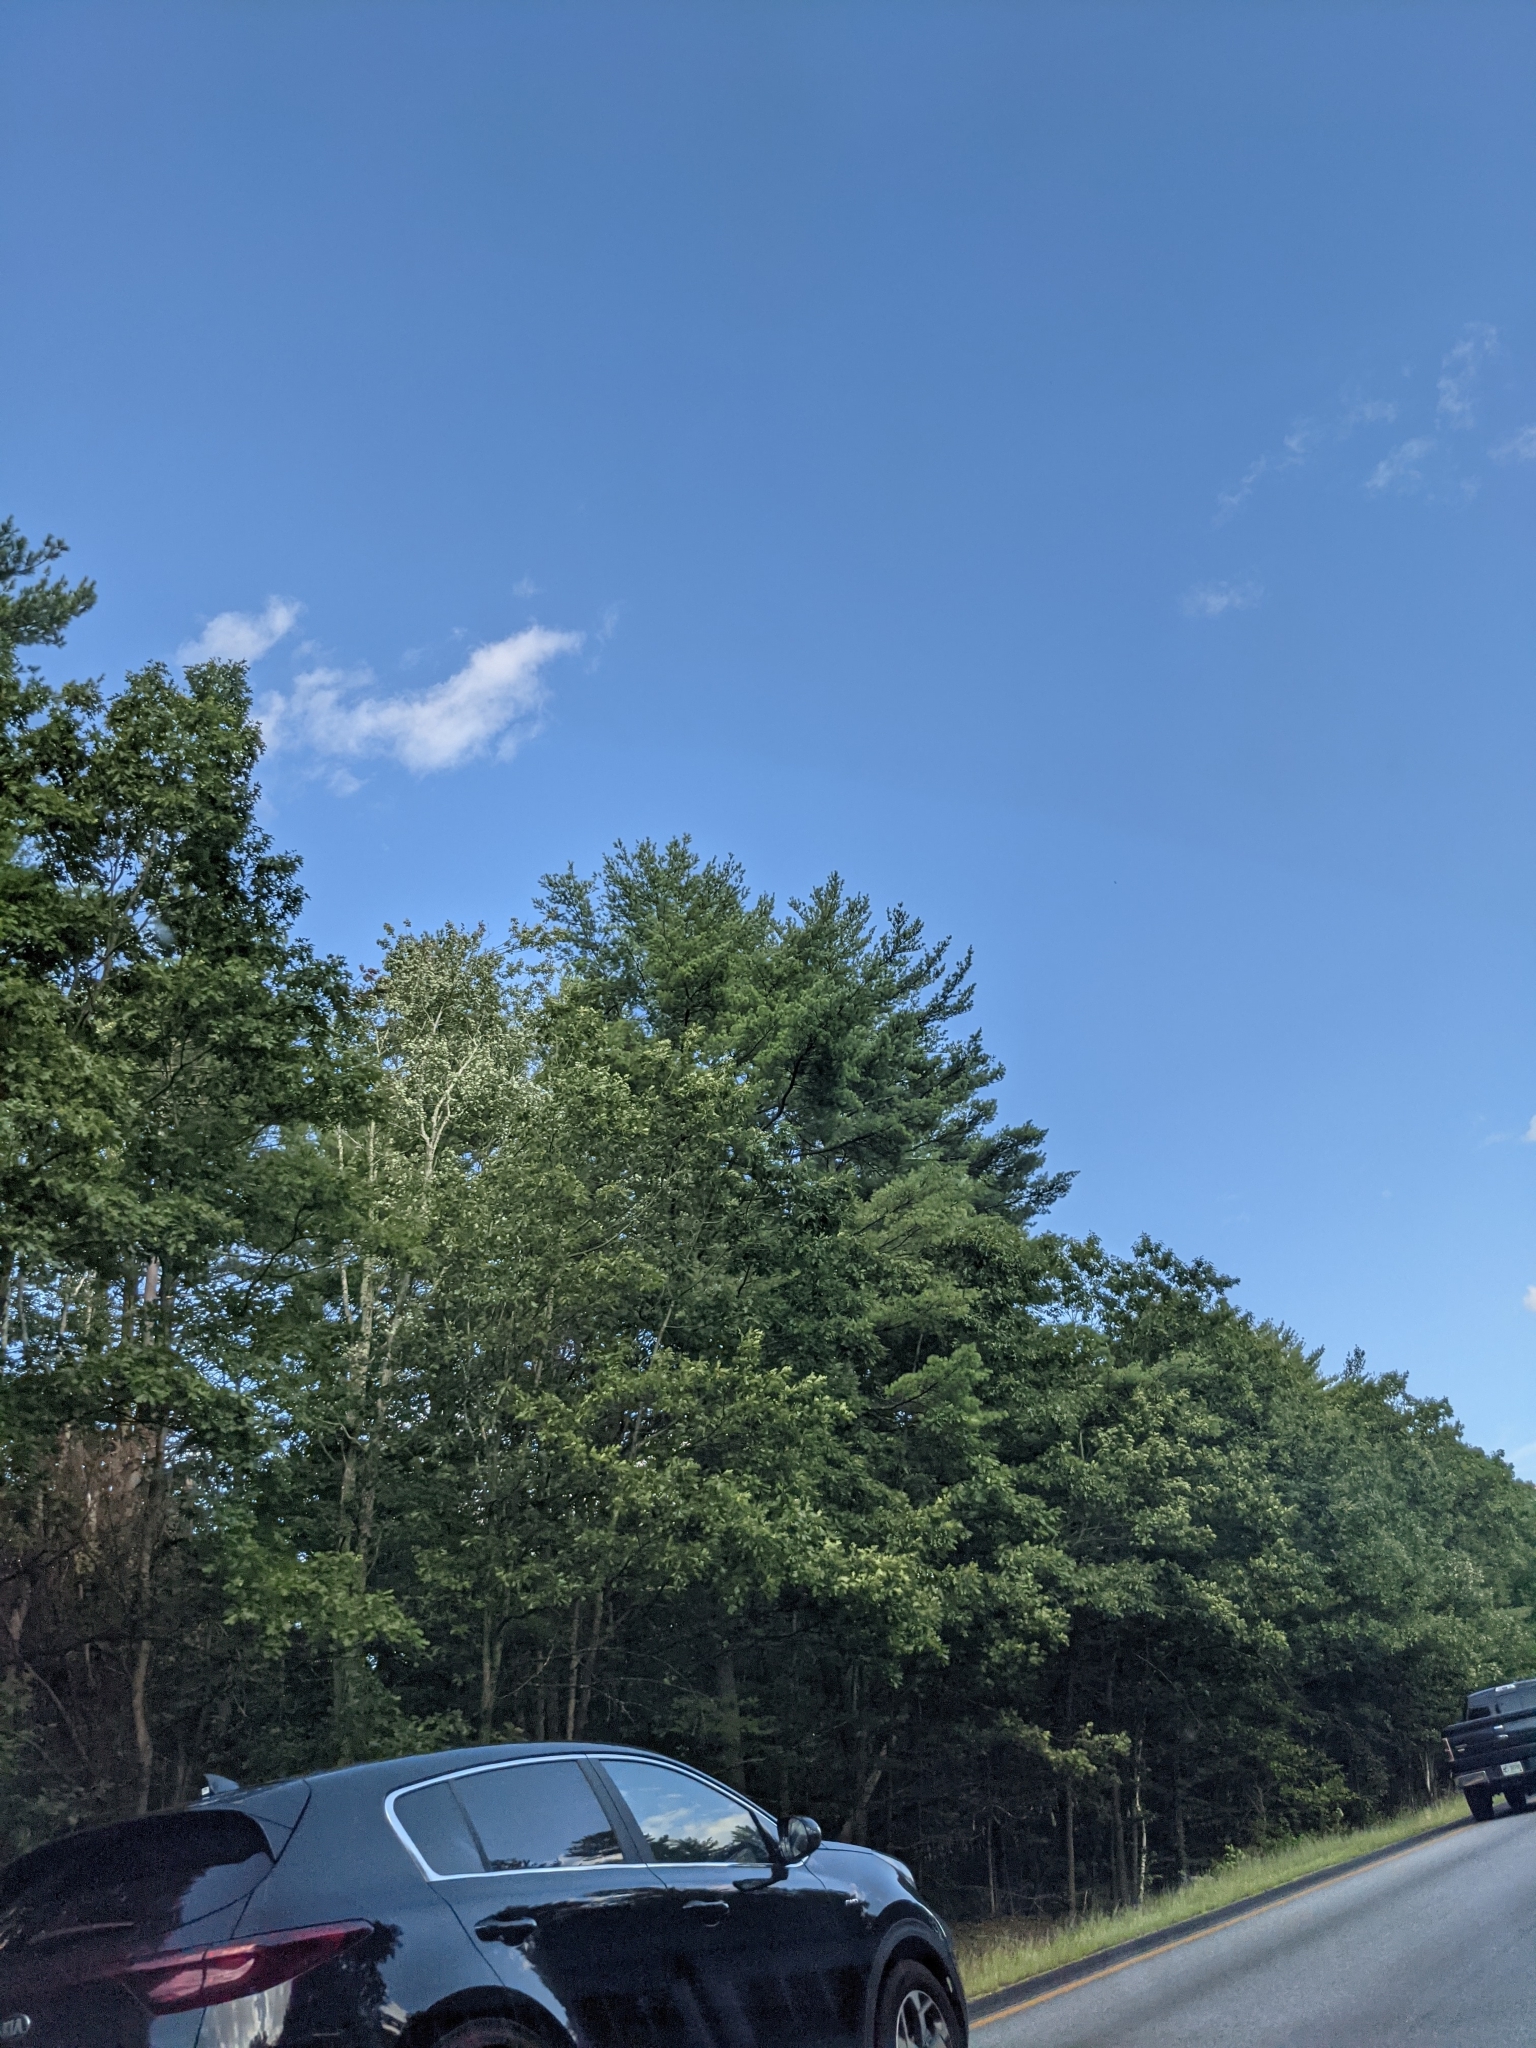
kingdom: Plantae
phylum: Tracheophyta
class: Pinopsida
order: Pinales
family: Pinaceae
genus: Pinus
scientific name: Pinus strobus
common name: Weymouth pine
